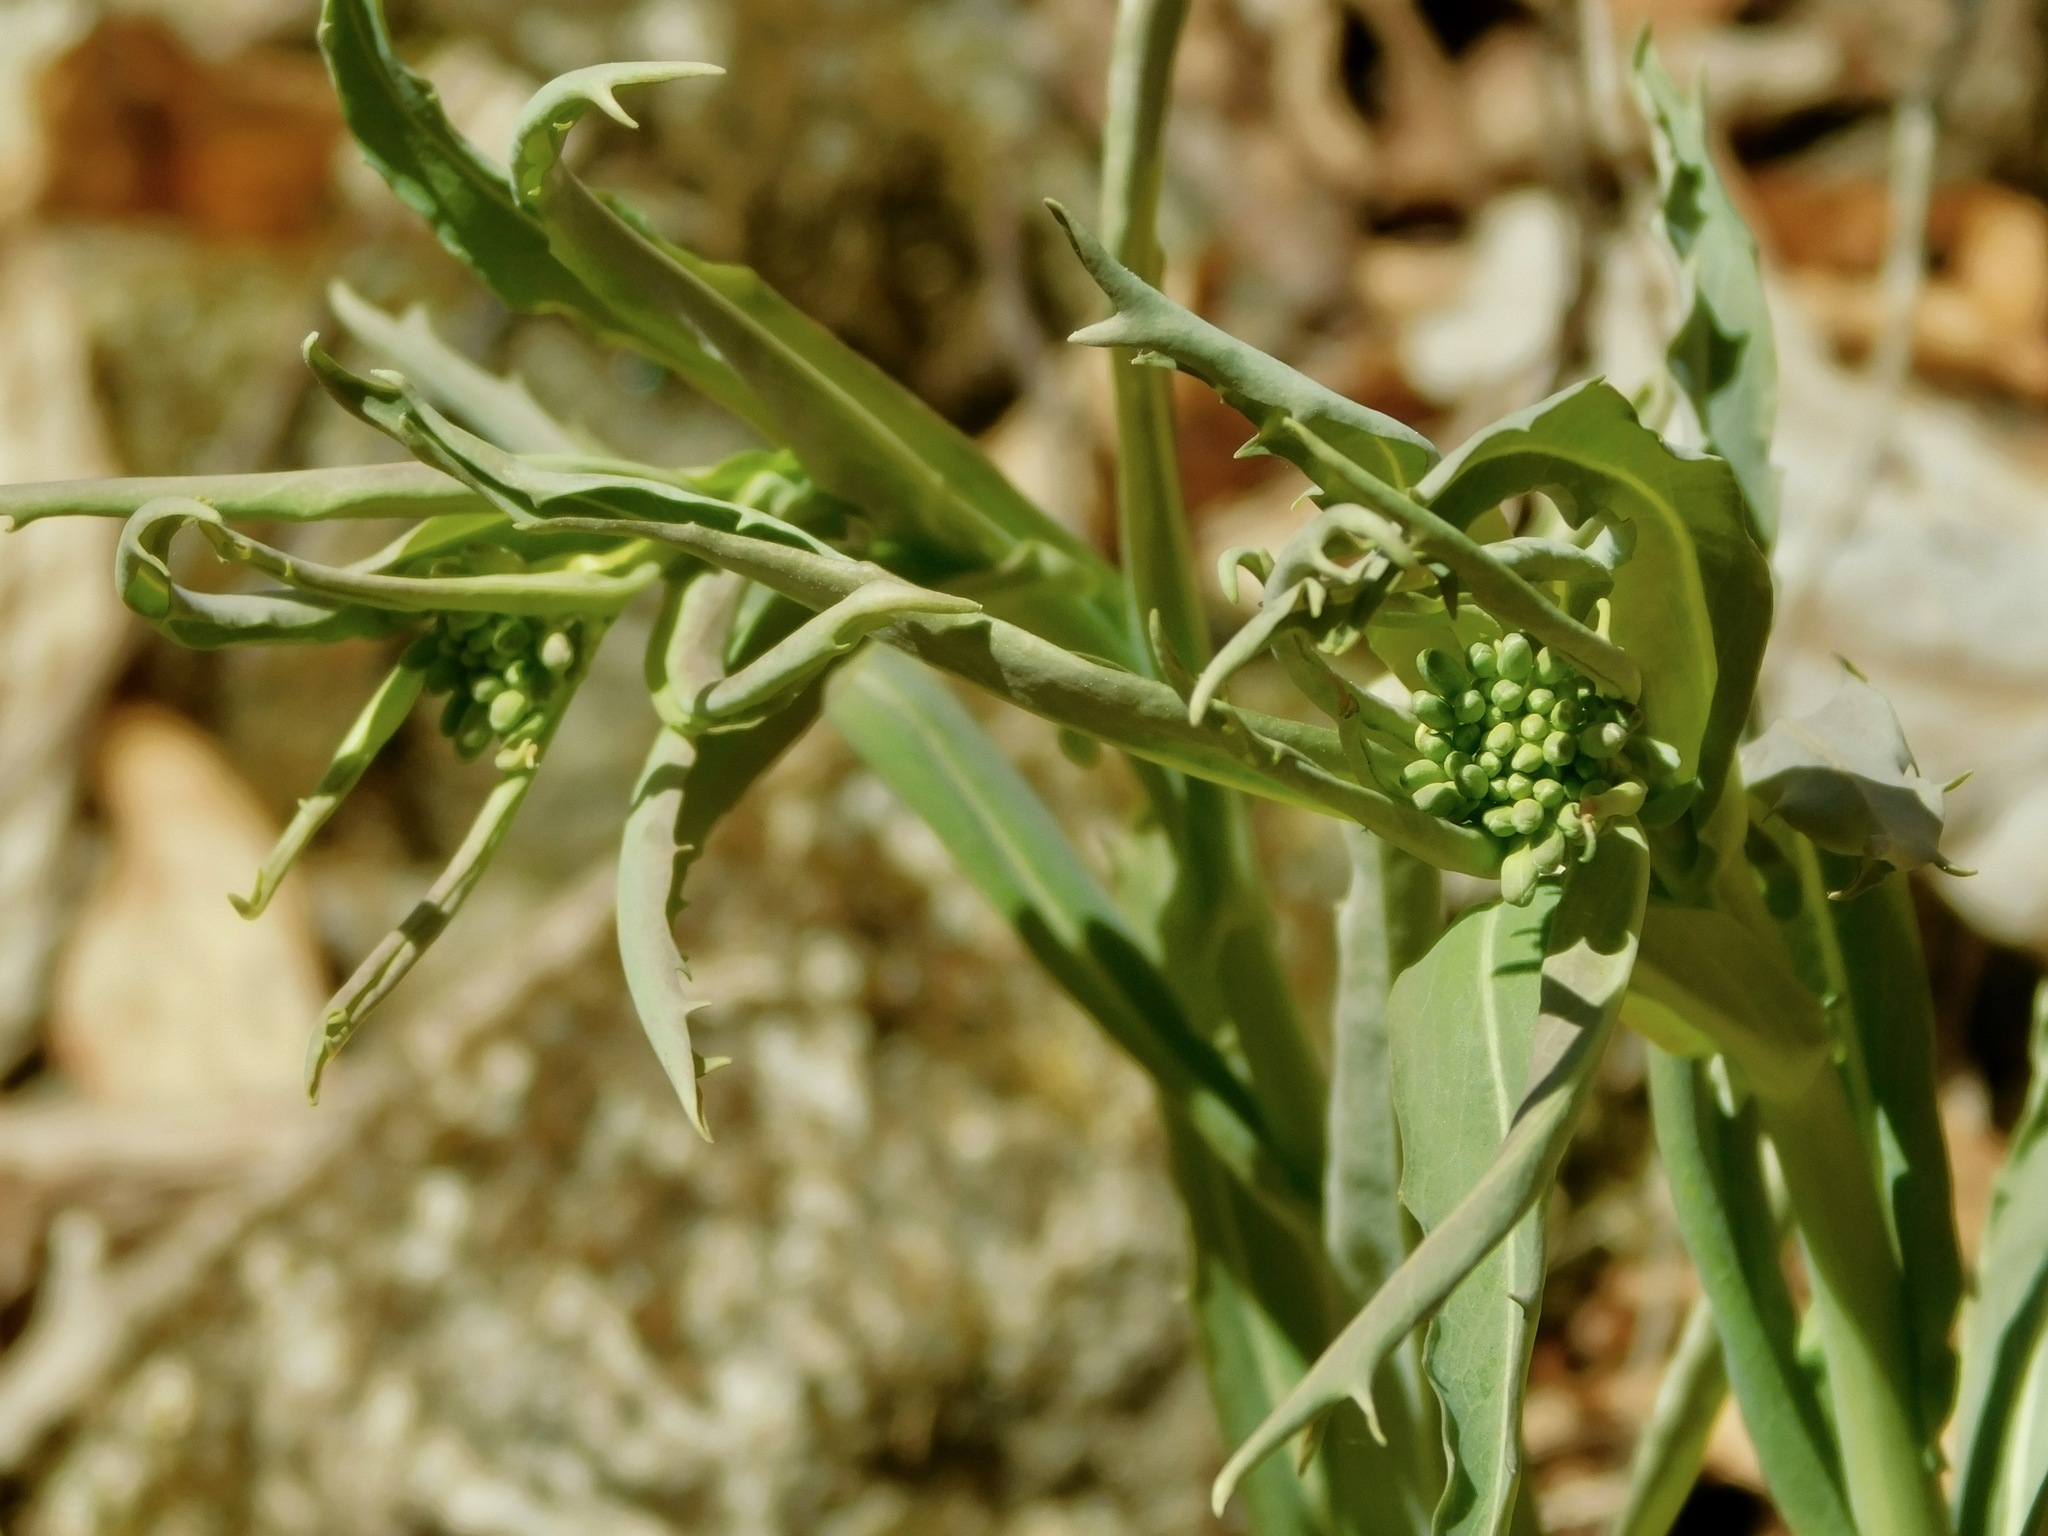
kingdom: Plantae
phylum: Tracheophyta
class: Magnoliopsida
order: Brassicales
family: Brassicaceae
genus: Borodinia
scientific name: Borodinia laevigata
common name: Smooth rockcress
